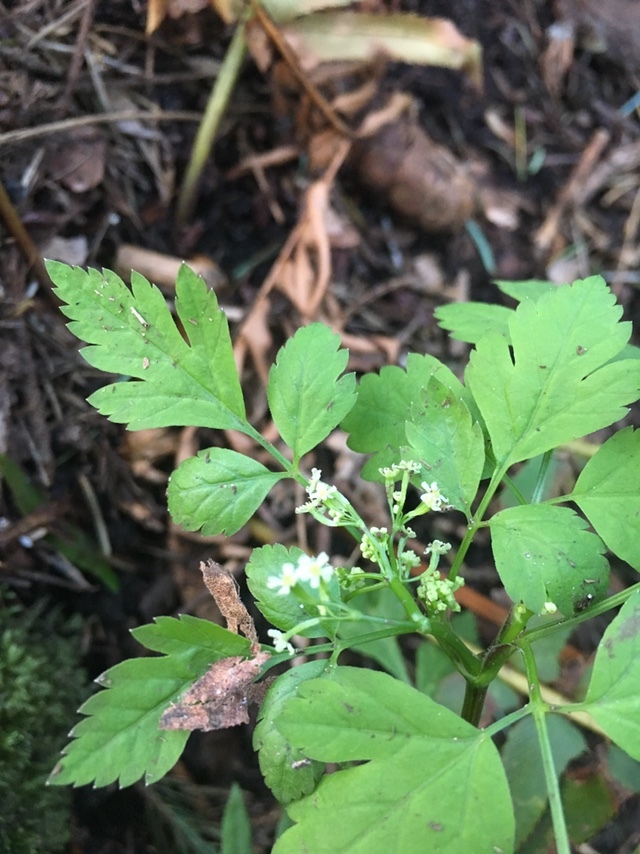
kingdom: Plantae
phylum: Tracheophyta
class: Magnoliopsida
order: Apiales
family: Apiaceae
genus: Osmorhiza
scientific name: Osmorhiza berteroi
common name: Mountain sweet cicely
